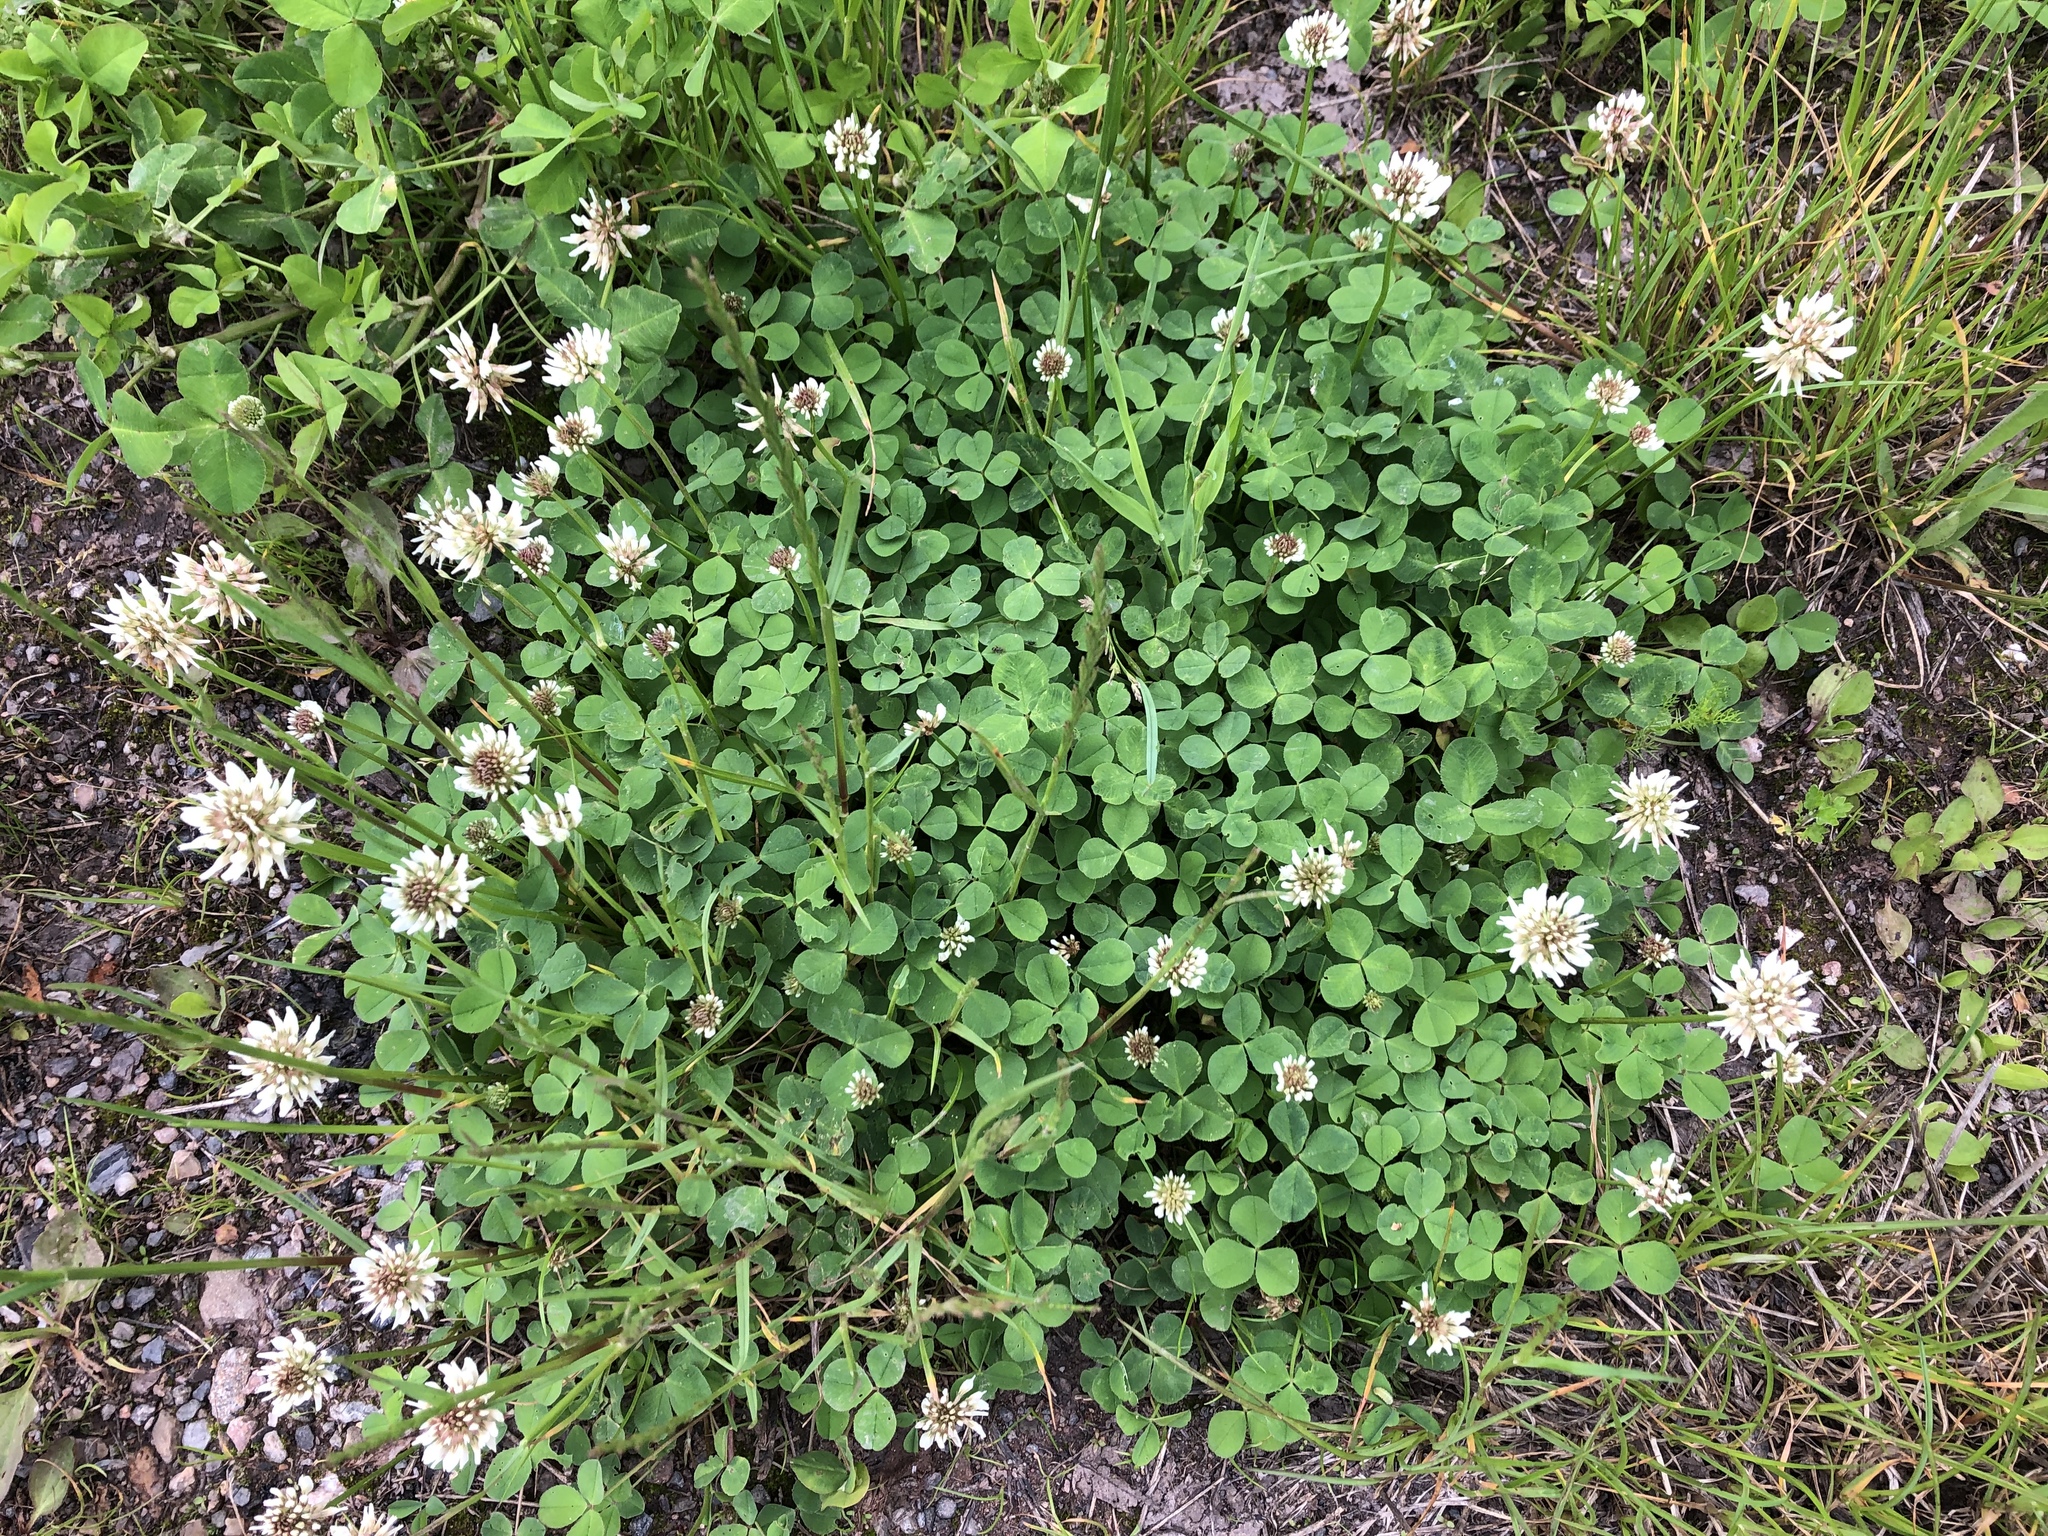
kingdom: Plantae
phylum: Tracheophyta
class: Magnoliopsida
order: Fabales
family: Fabaceae
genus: Trifolium
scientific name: Trifolium repens
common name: White clover
